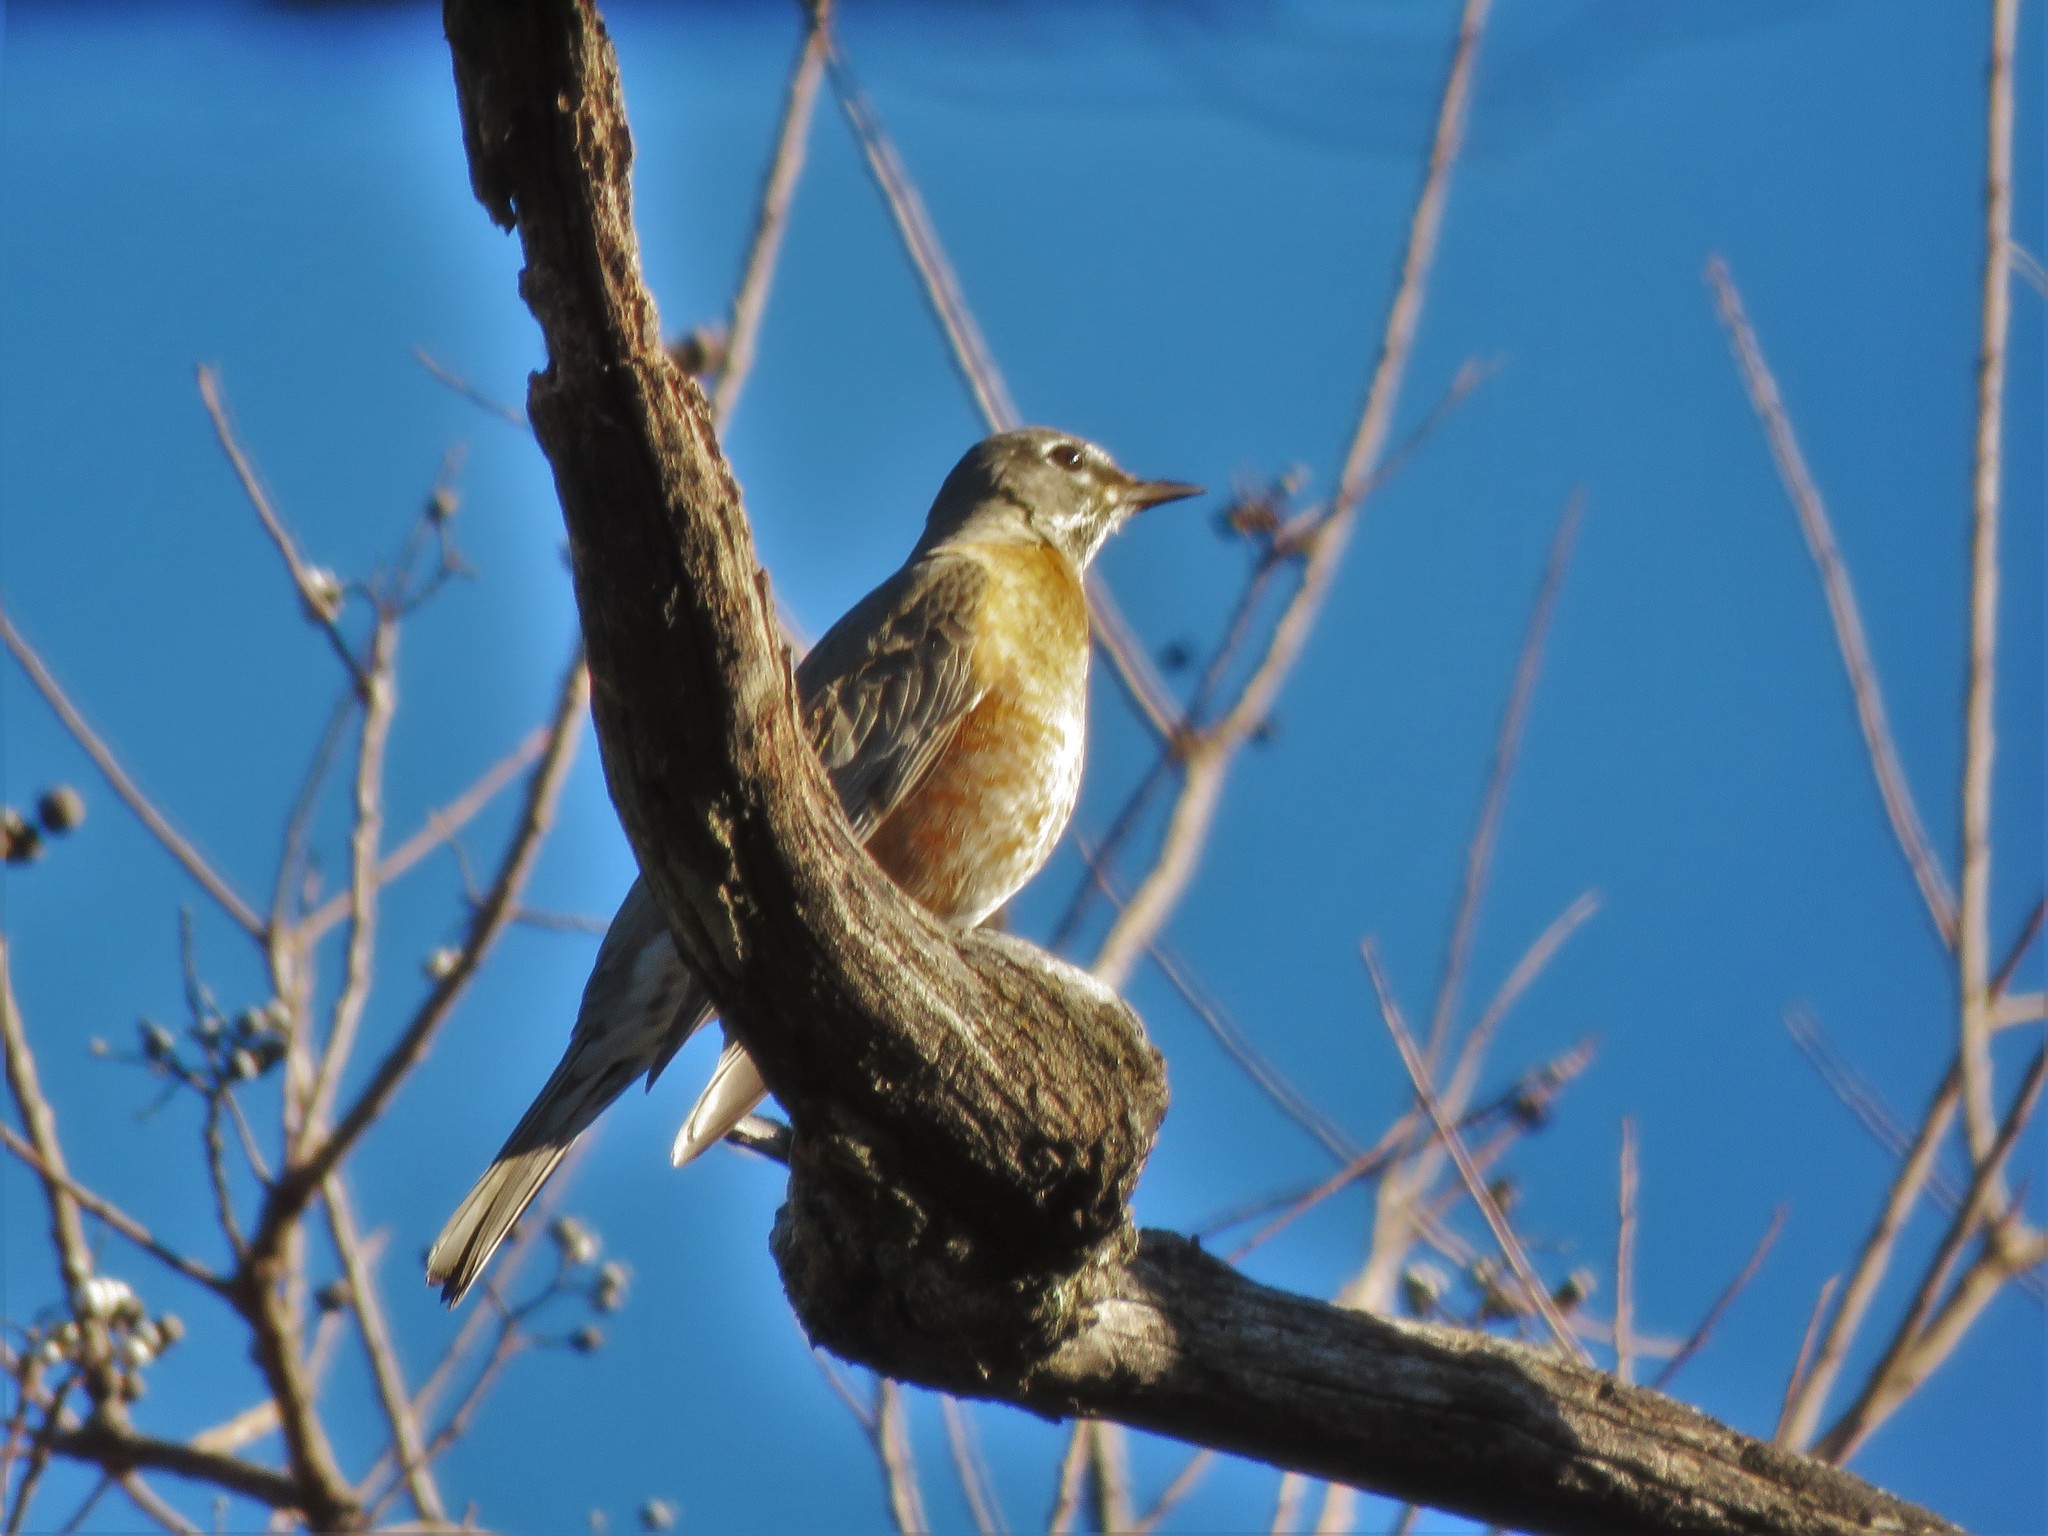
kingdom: Animalia
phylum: Chordata
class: Aves
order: Passeriformes
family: Turdidae
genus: Turdus
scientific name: Turdus migratorius
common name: American robin
